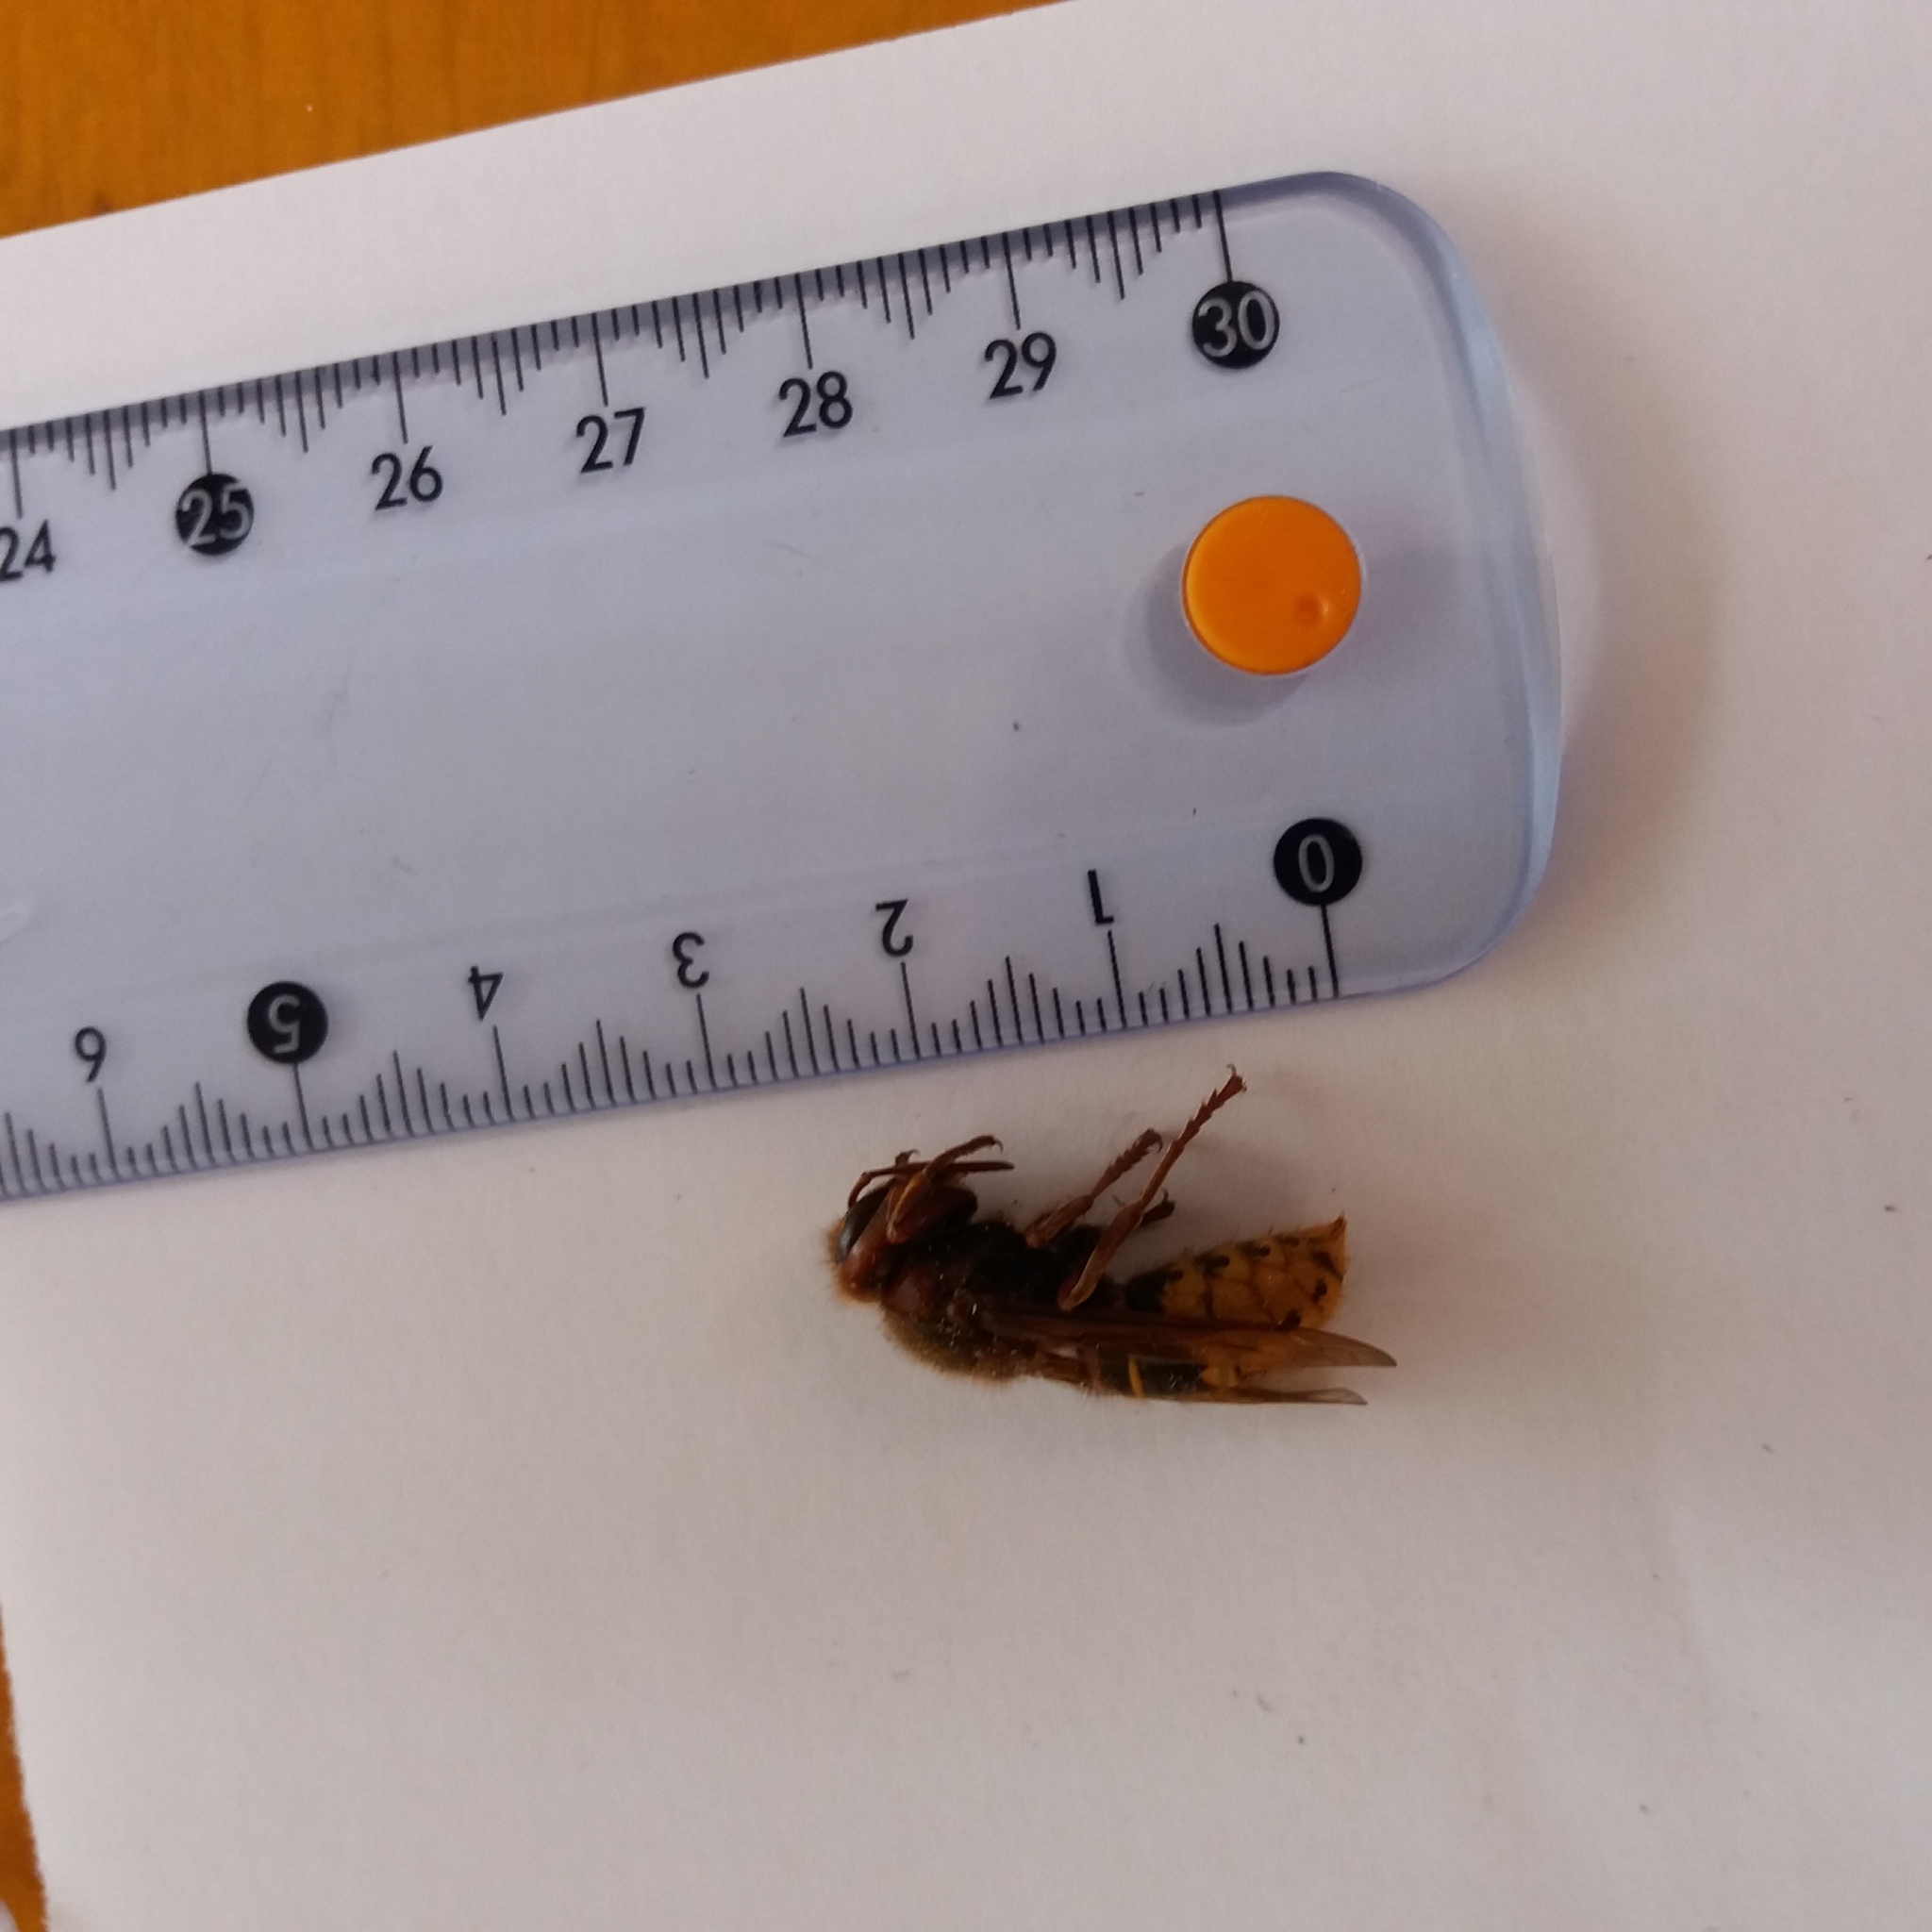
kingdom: Animalia
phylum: Arthropoda
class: Insecta
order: Hymenoptera
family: Vespidae
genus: Vespa
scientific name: Vespa crabro
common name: Hornet
